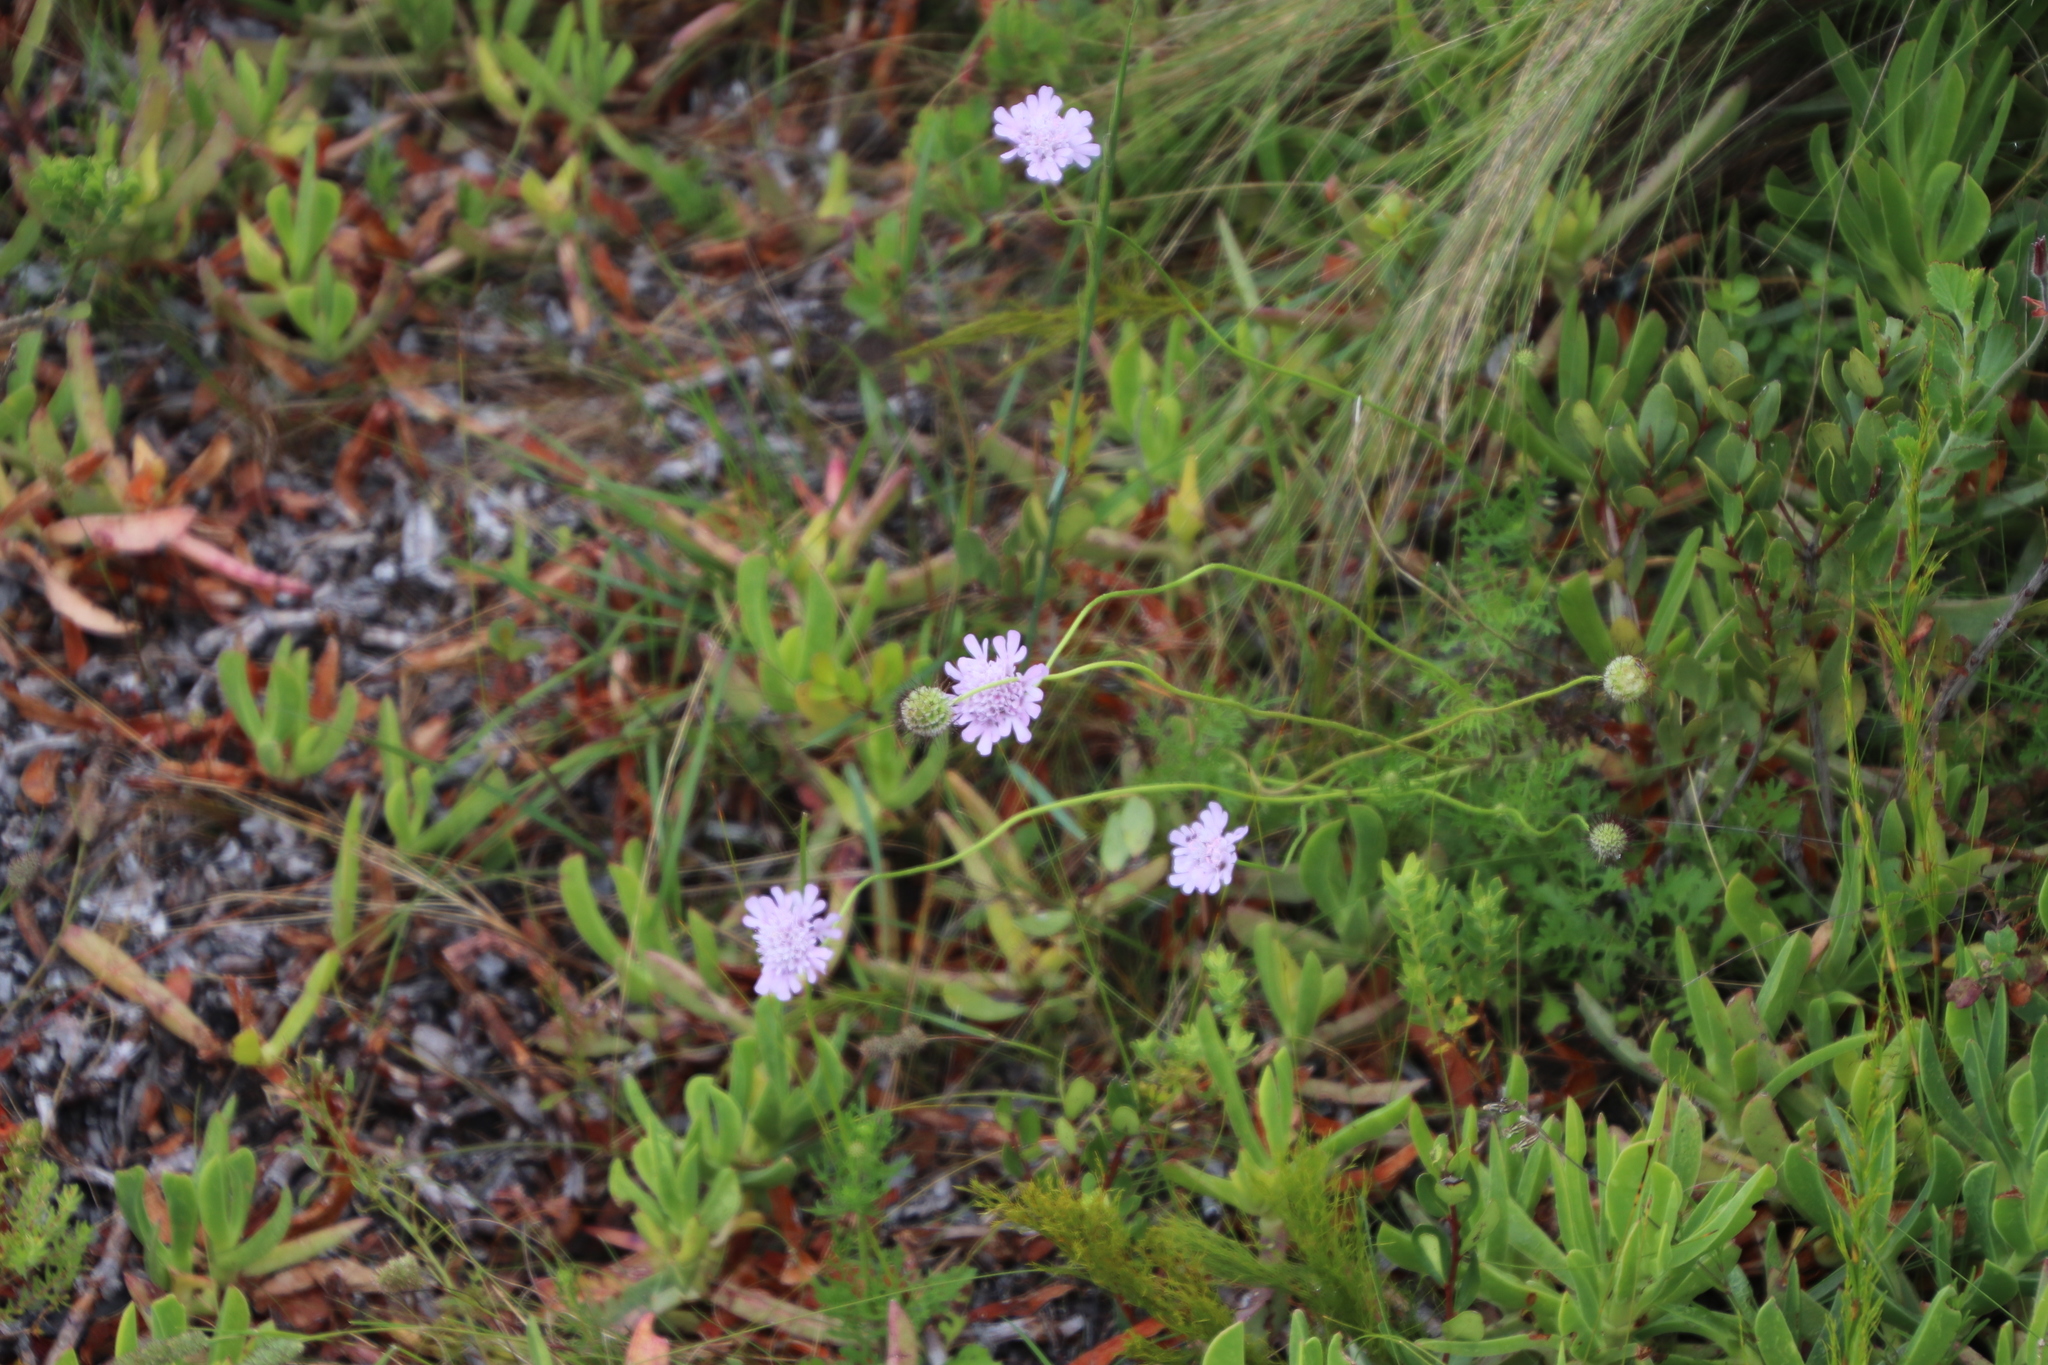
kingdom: Plantae
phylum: Tracheophyta
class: Magnoliopsida
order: Dipsacales
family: Caprifoliaceae
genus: Scabiosa
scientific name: Scabiosa columbaria
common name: Small scabious
